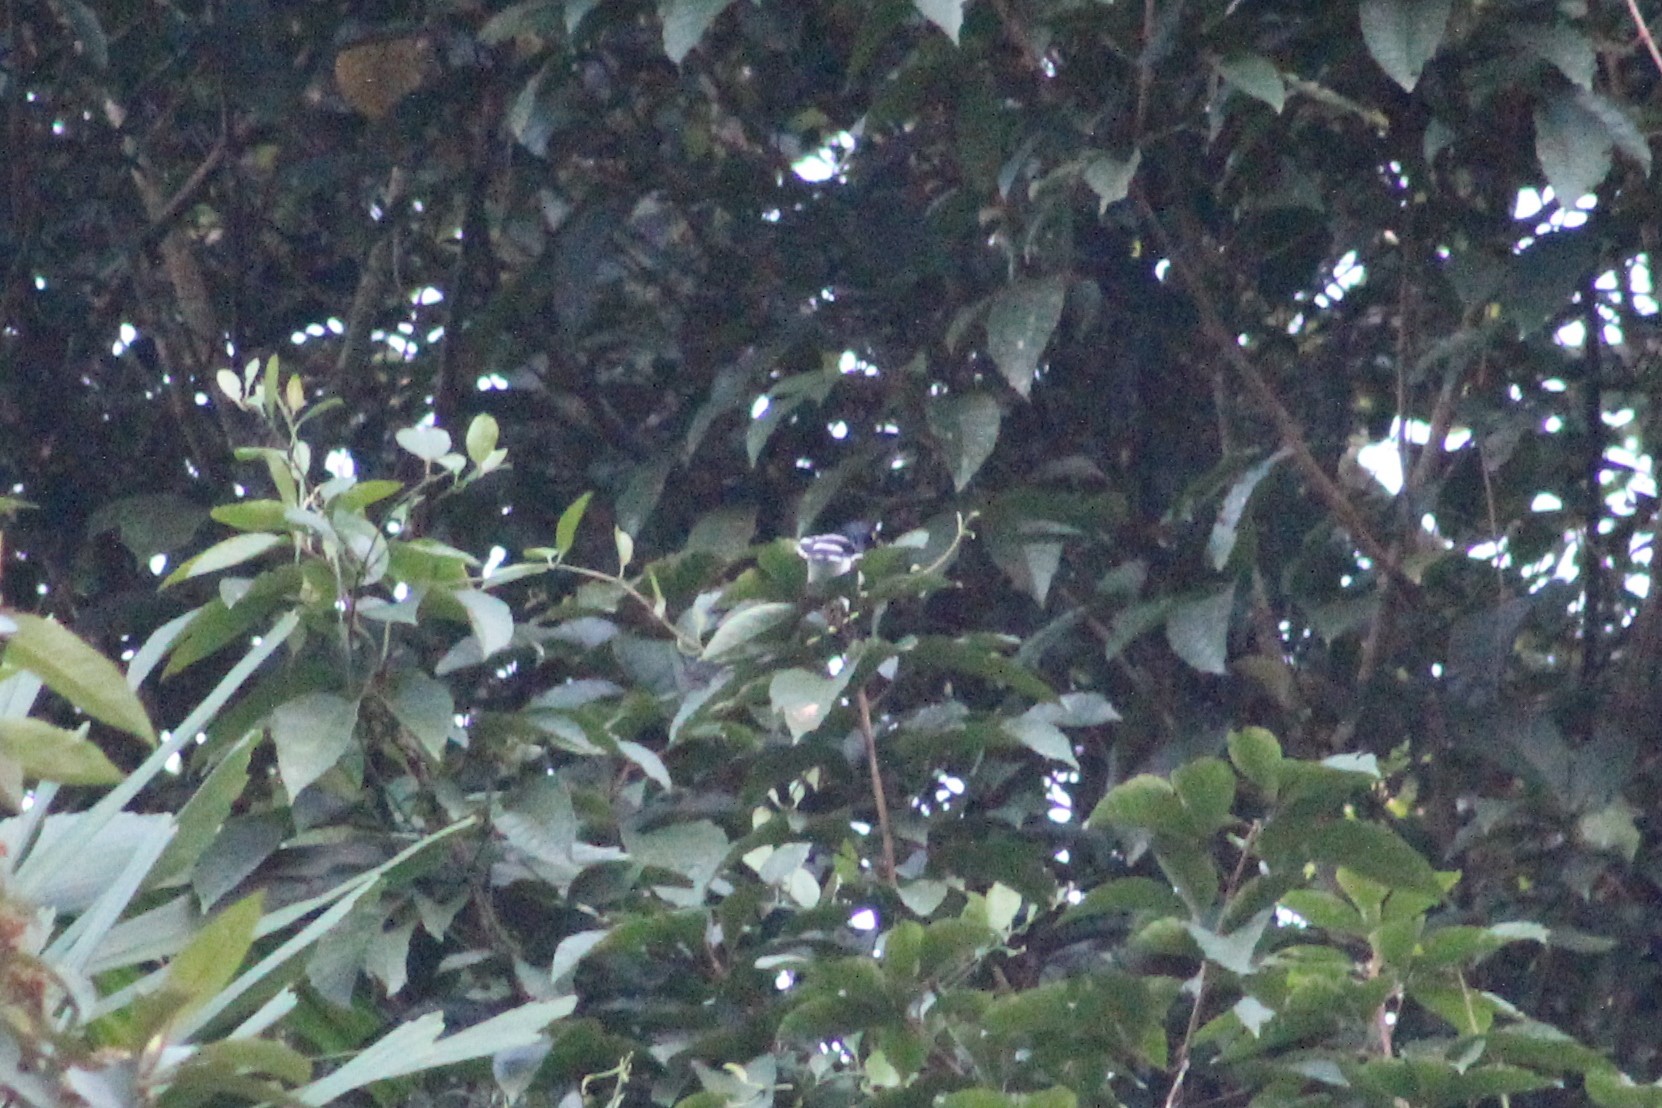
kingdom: Animalia
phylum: Chordata
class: Aves
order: Passeriformes
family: Thraupidae
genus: Cissopis
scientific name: Cissopis leverianus
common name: Magpie tanager
